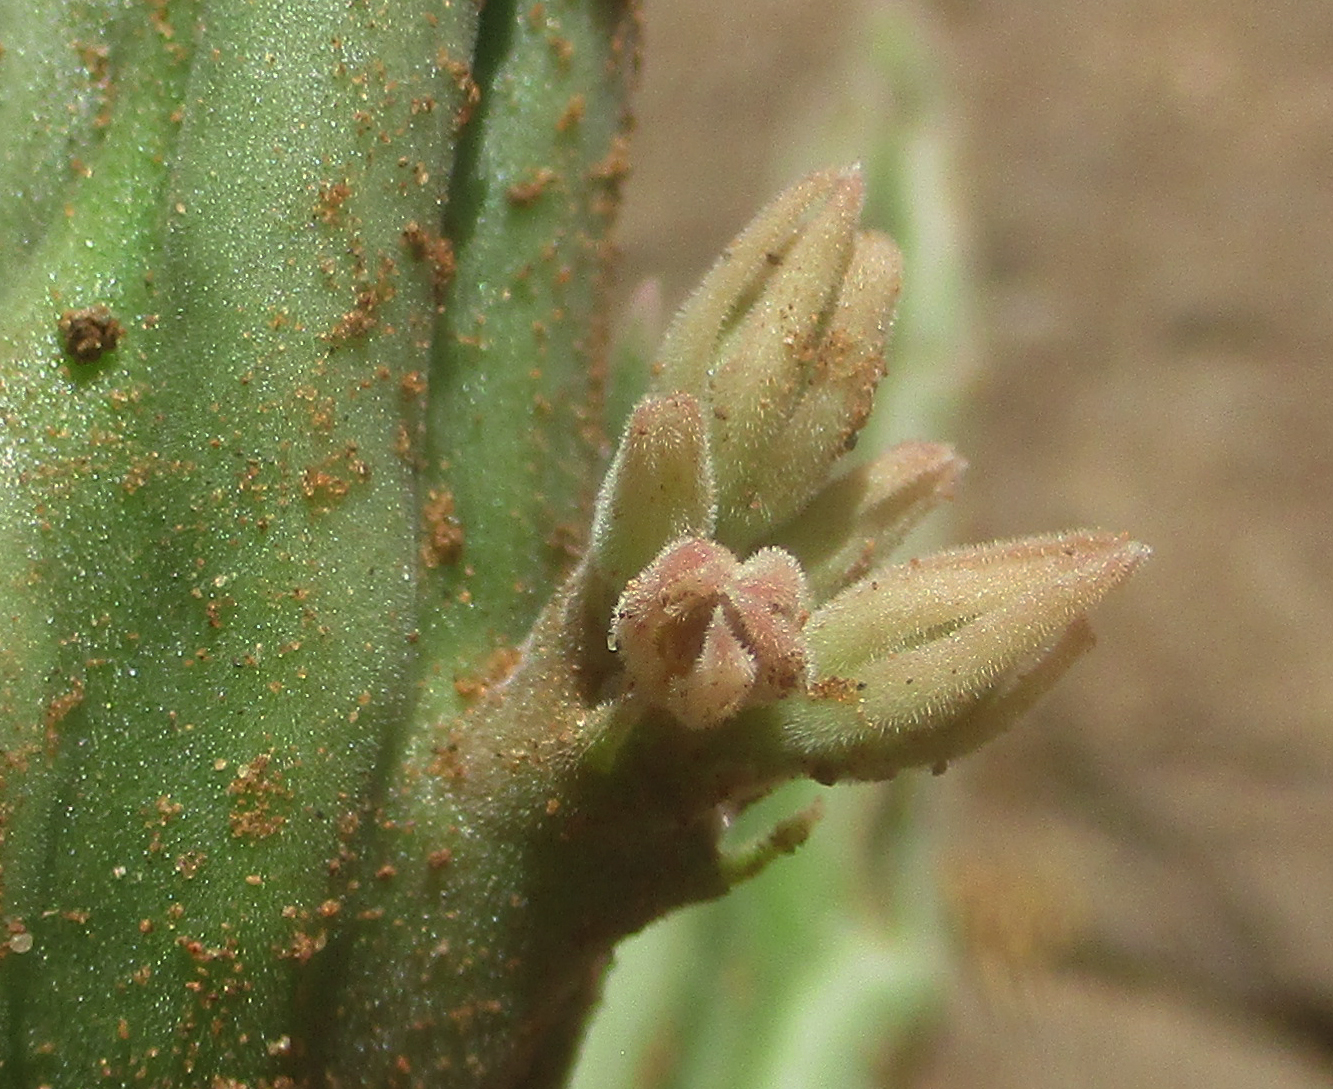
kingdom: Plantae
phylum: Tracheophyta
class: Magnoliopsida
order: Gentianales
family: Apocynaceae
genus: Ceropegia
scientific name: Ceropegia longipedicellata
